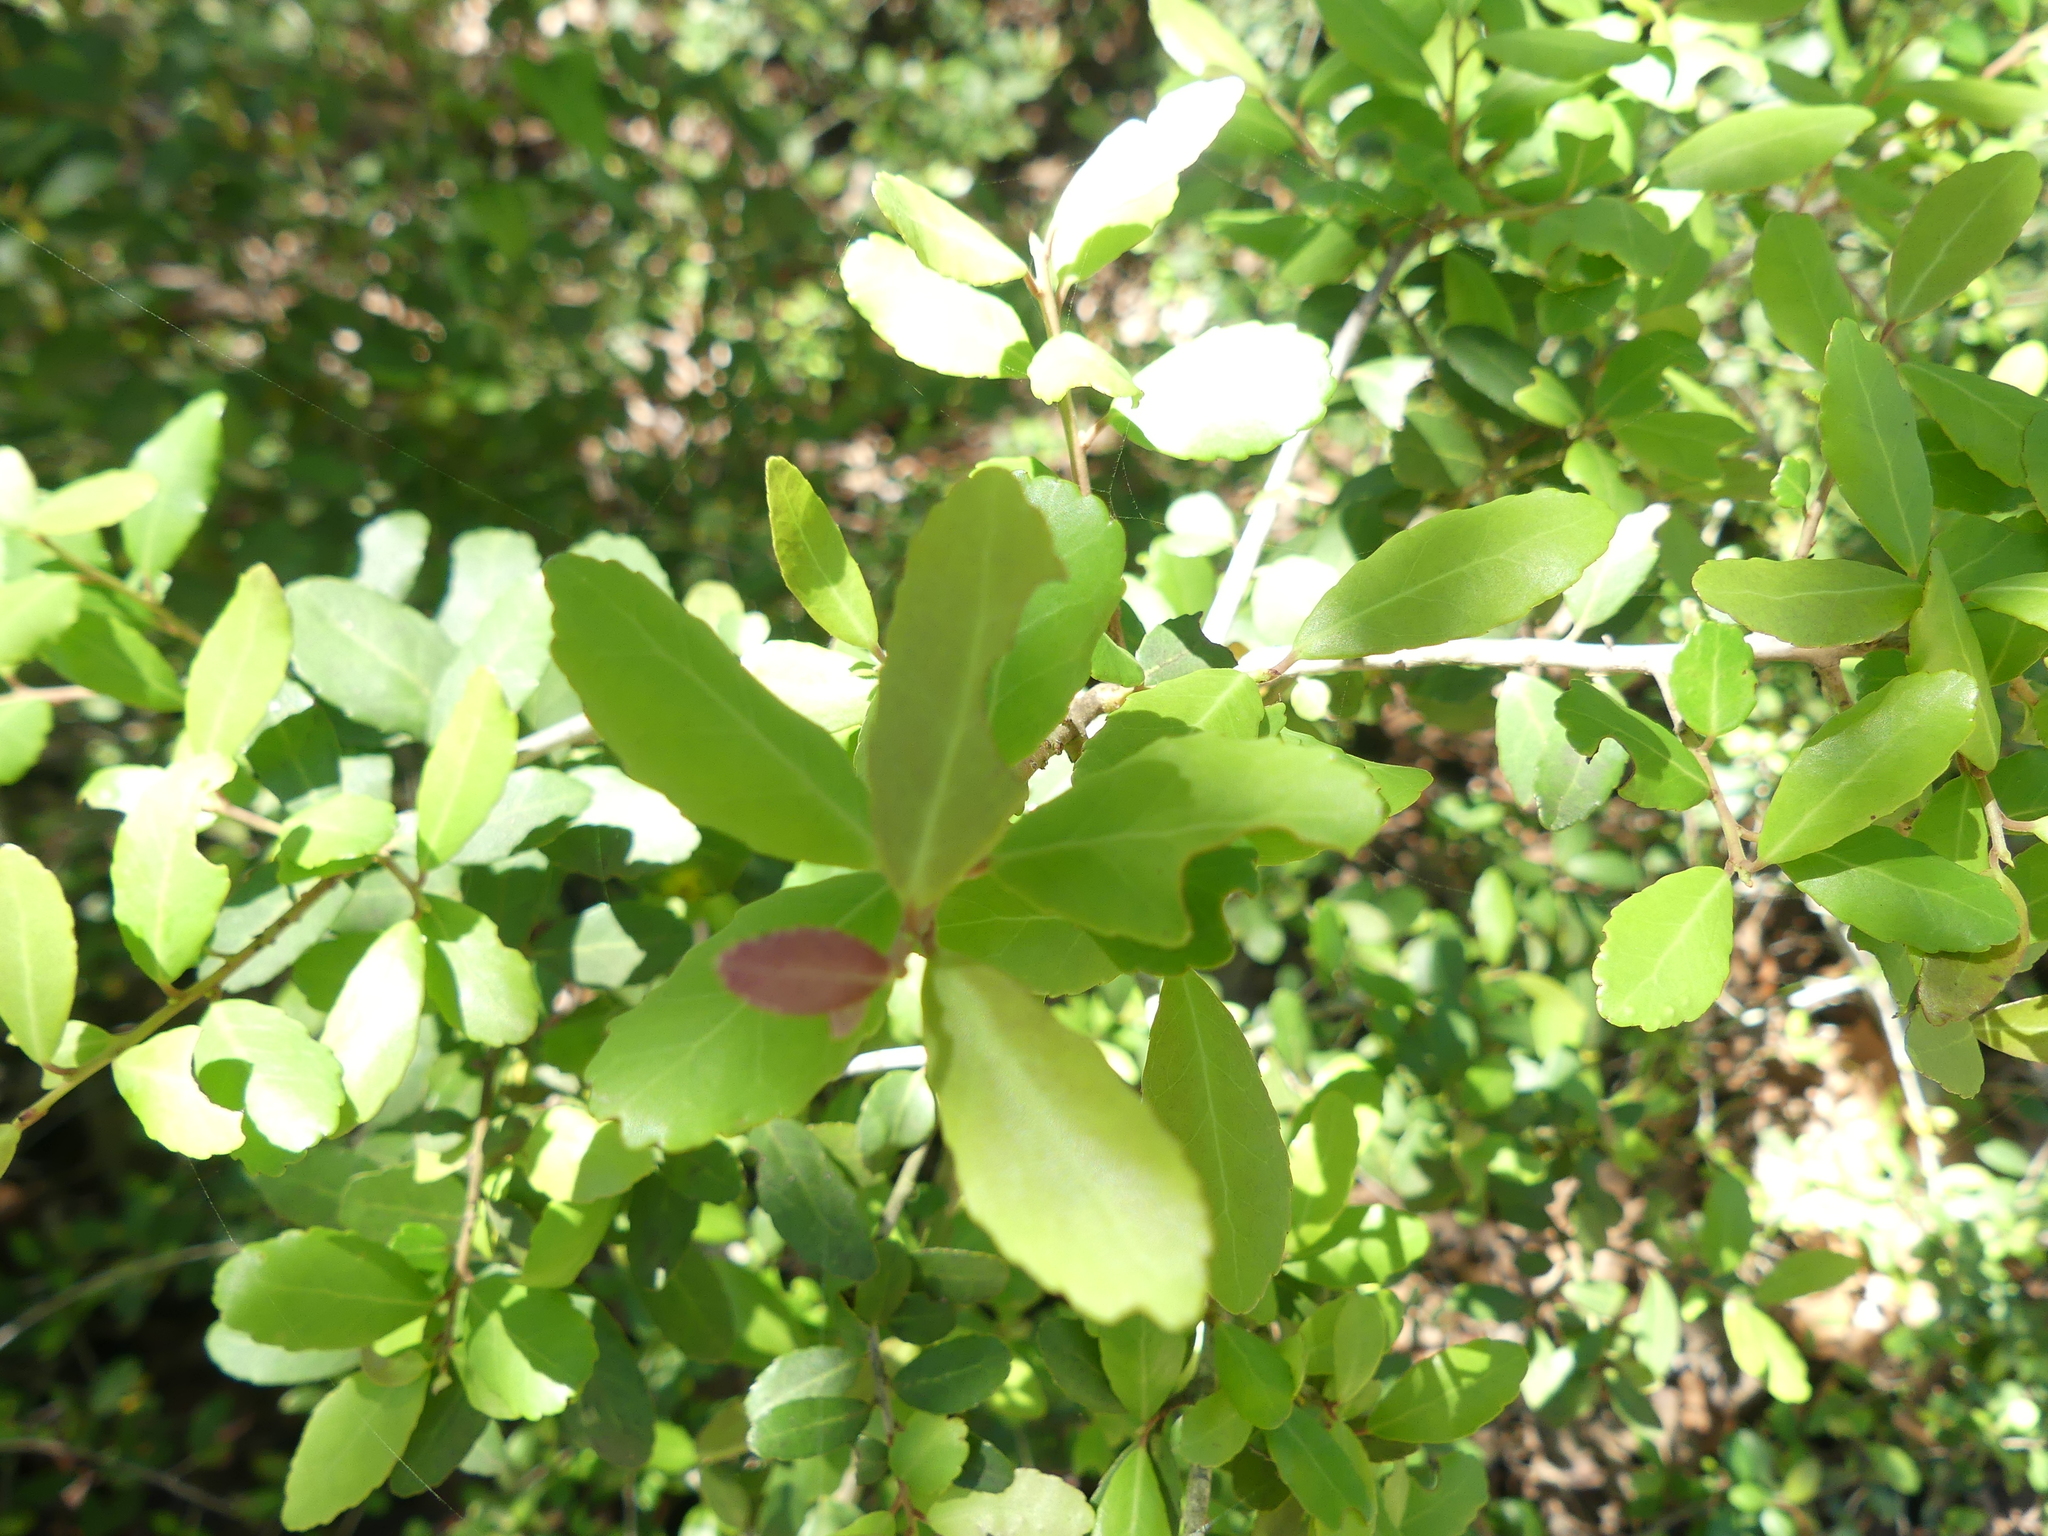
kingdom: Plantae
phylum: Tracheophyta
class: Magnoliopsida
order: Aquifoliales
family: Aquifoliaceae
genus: Ilex
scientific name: Ilex vomitoria
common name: Yaupon holly
